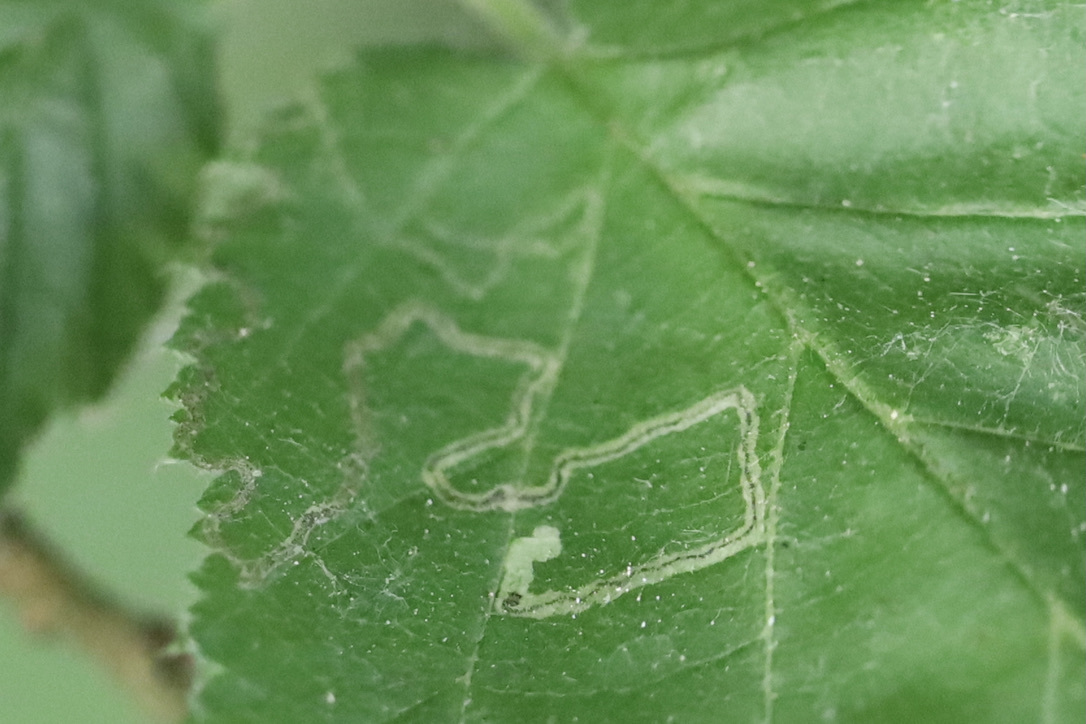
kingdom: Animalia
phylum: Arthropoda
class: Insecta
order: Lepidoptera
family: Nepticulidae
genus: Stigmella
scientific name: Stigmella microtheriella
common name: Nut-tree pigmy
